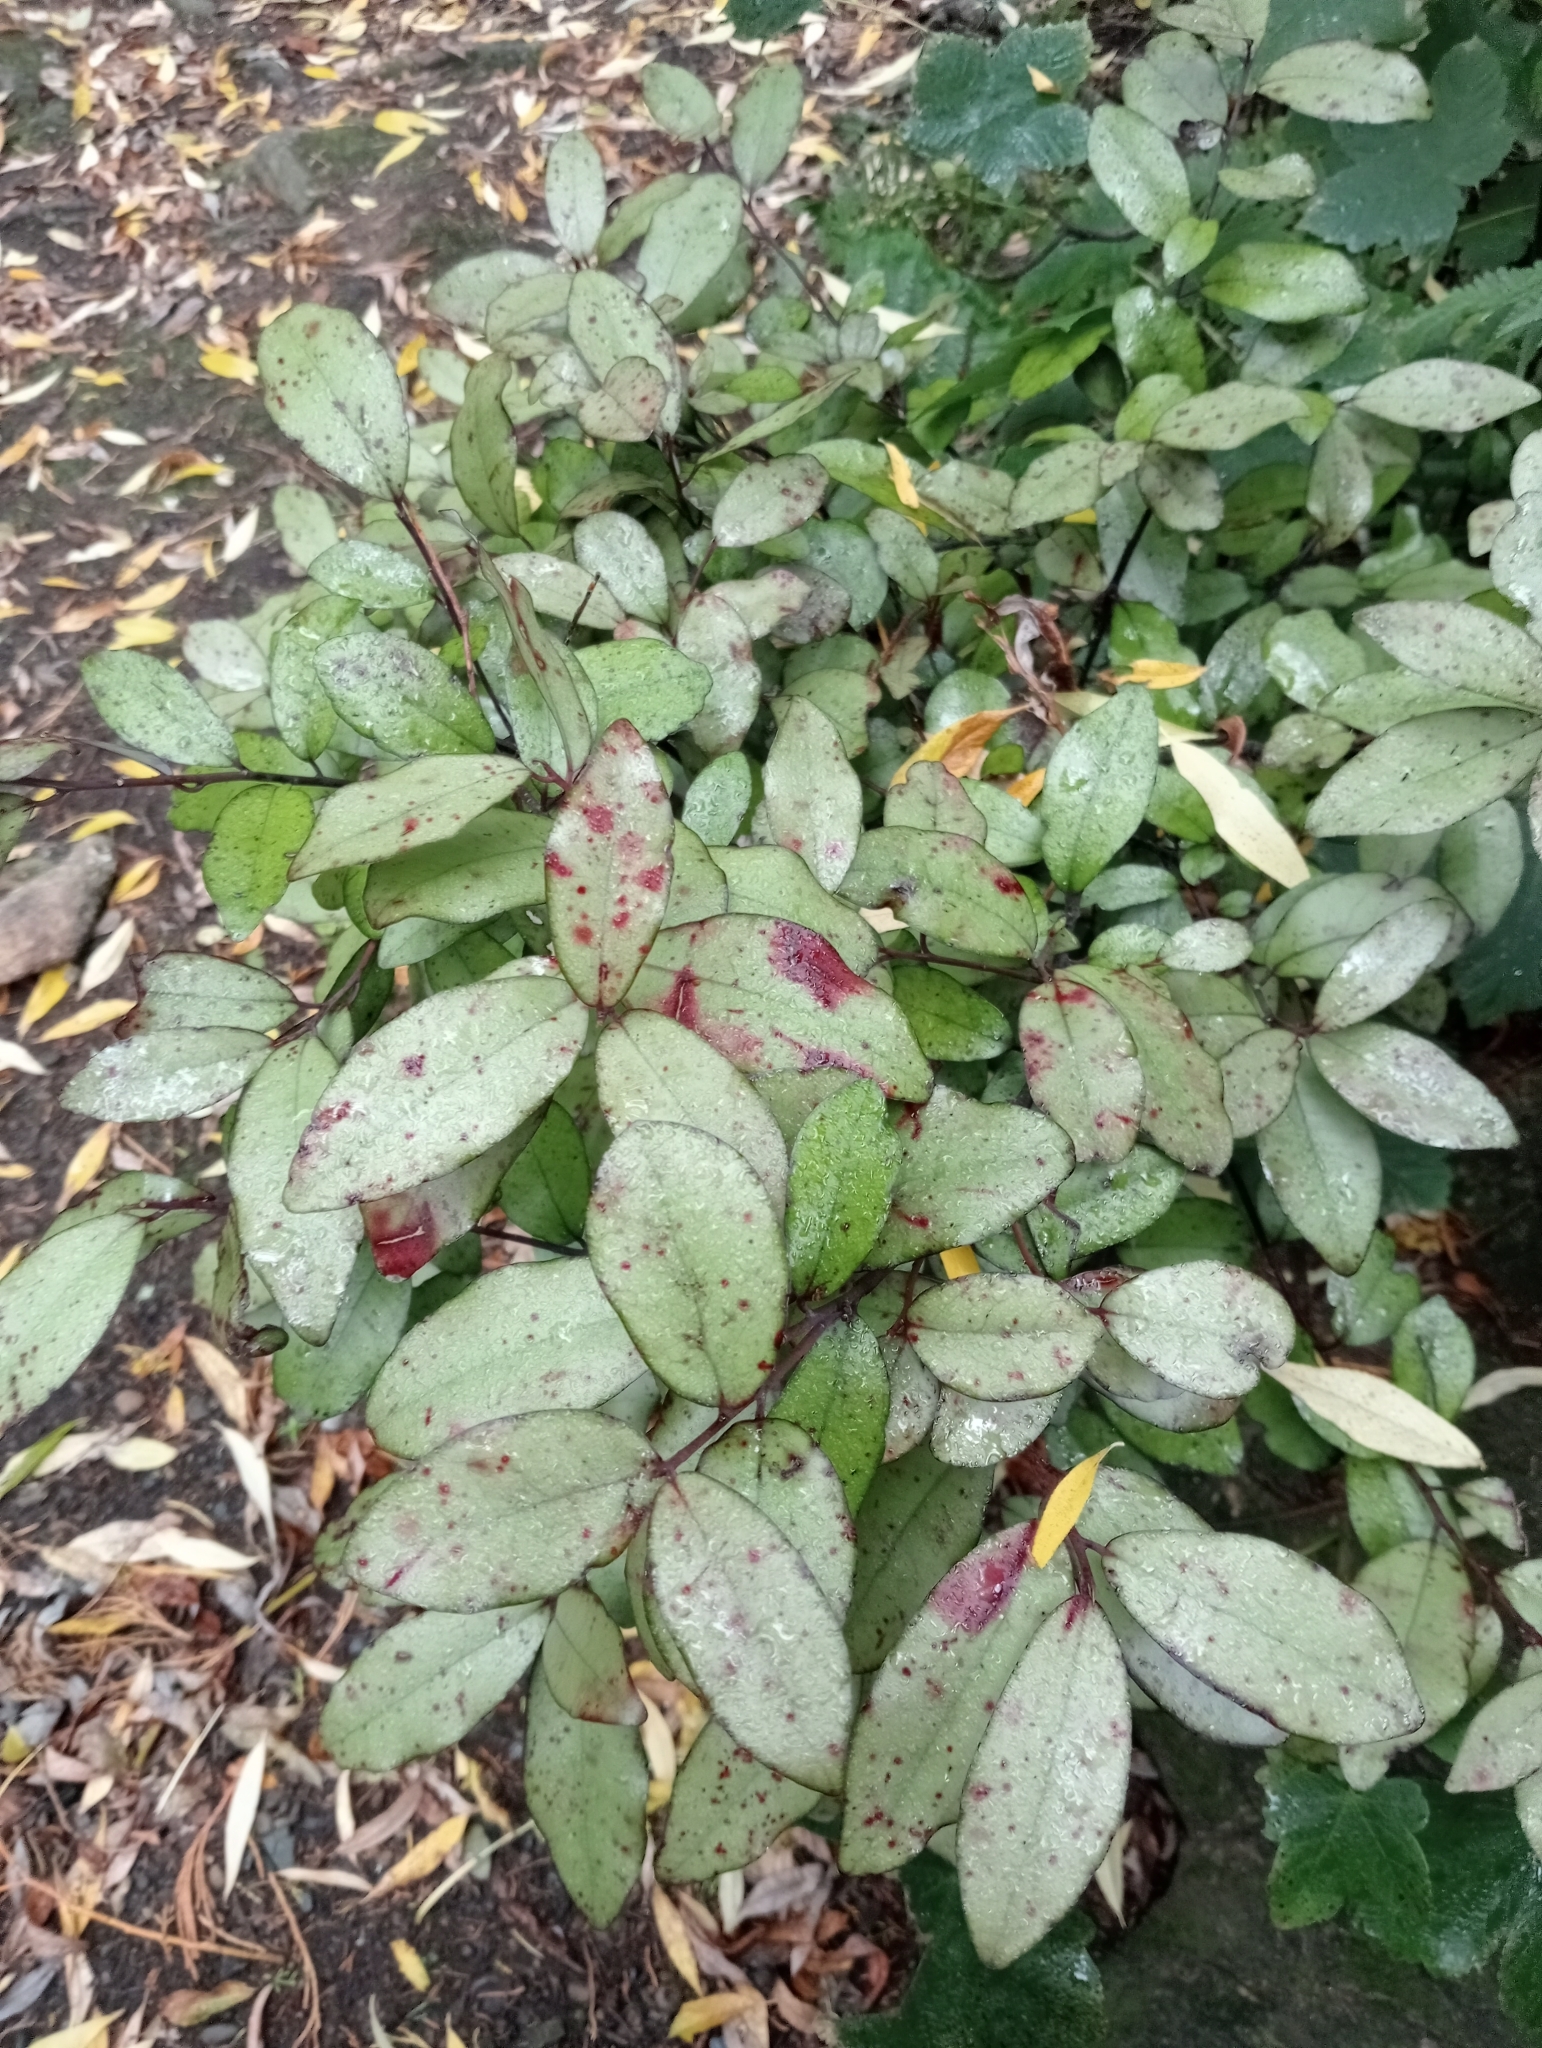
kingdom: Plantae
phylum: Tracheophyta
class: Magnoliopsida
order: Canellales
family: Winteraceae
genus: Pseudowintera
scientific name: Pseudowintera colorata
